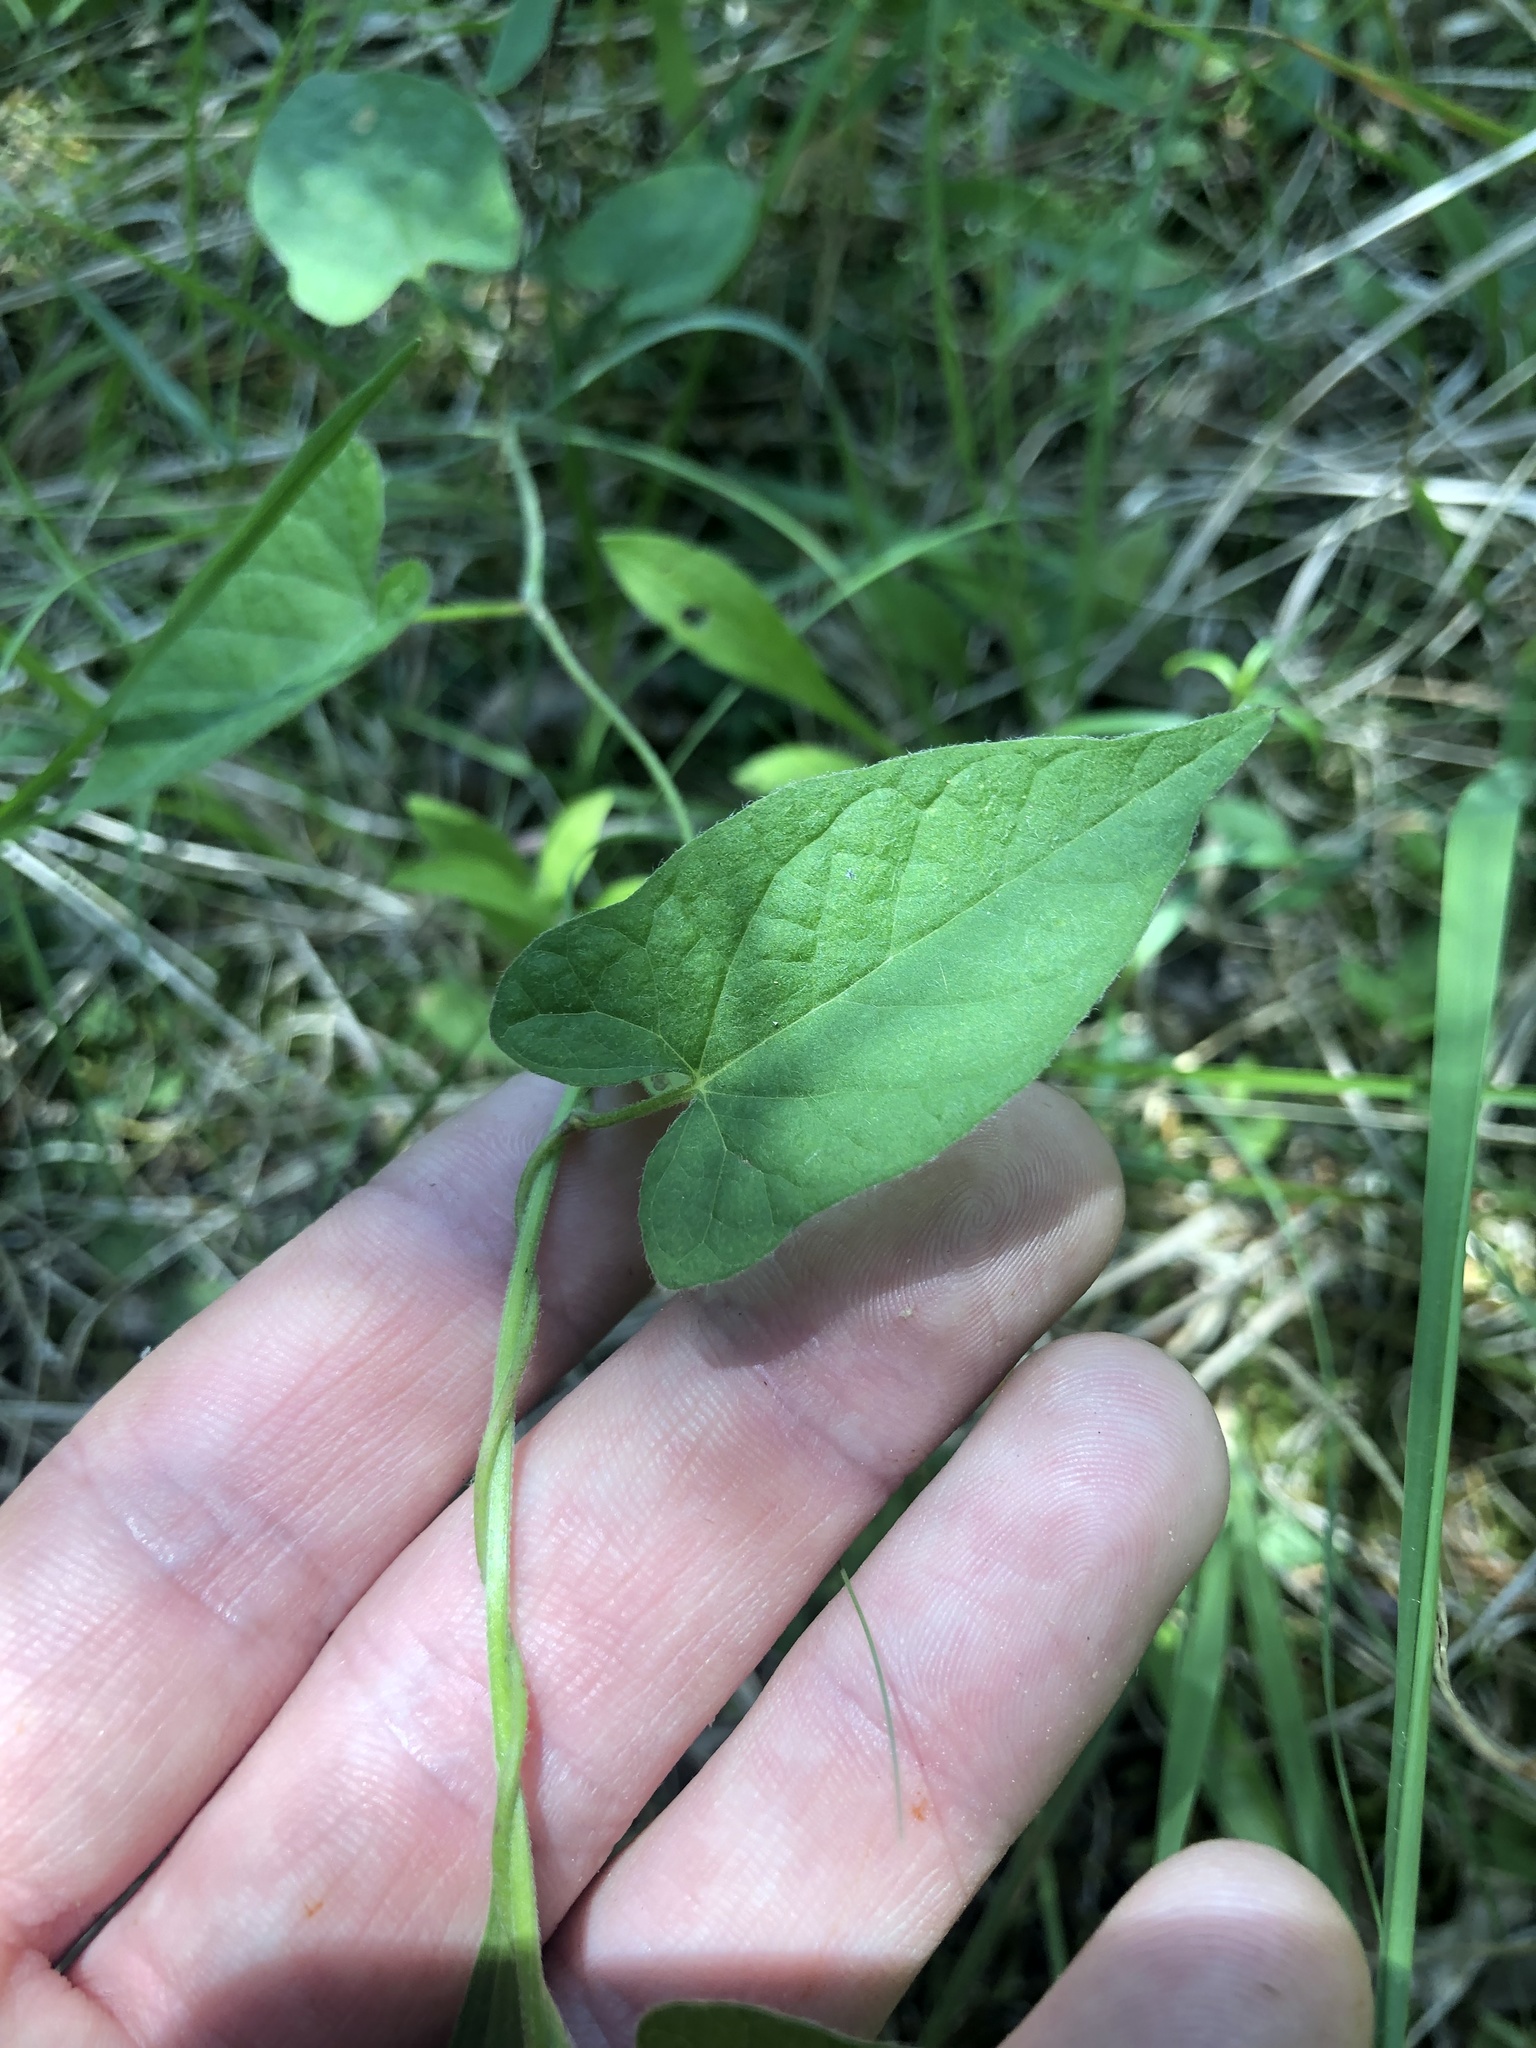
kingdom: Plantae
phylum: Tracheophyta
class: Magnoliopsida
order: Solanales
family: Convolvulaceae
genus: Calystegia
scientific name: Calystegia catesbeiana
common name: Catesby's false bindweed
